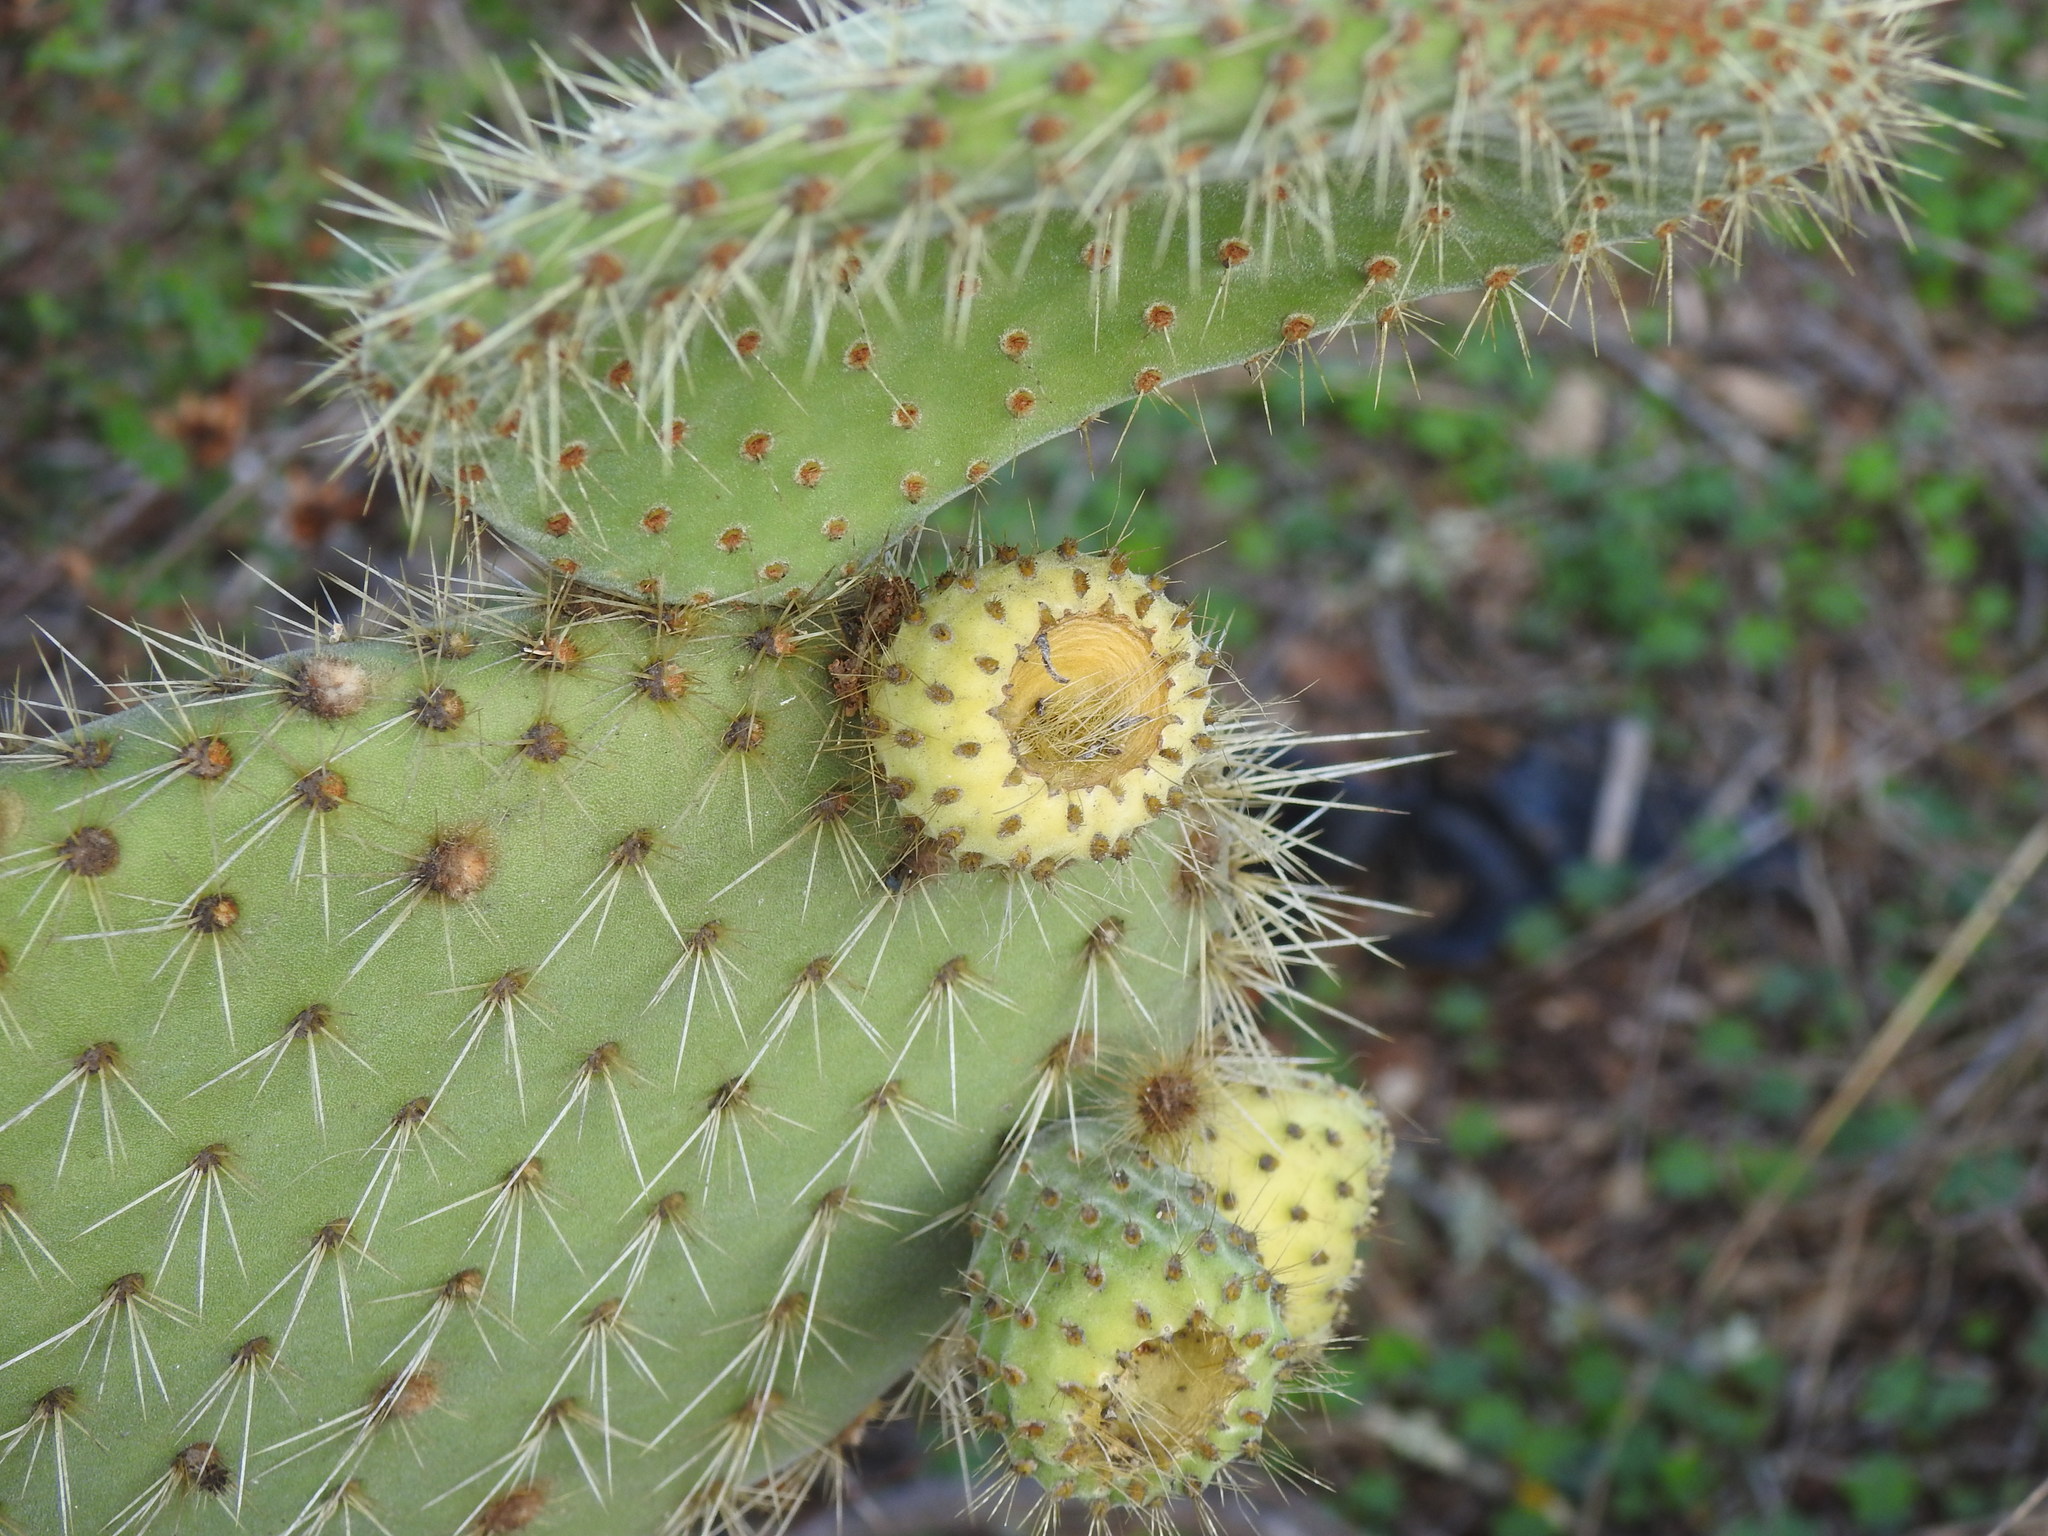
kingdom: Plantae
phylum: Tracheophyta
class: Magnoliopsida
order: Caryophyllales
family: Cactaceae
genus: Opuntia
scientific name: Opuntia leucotricha
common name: Arborescent pricklypear
